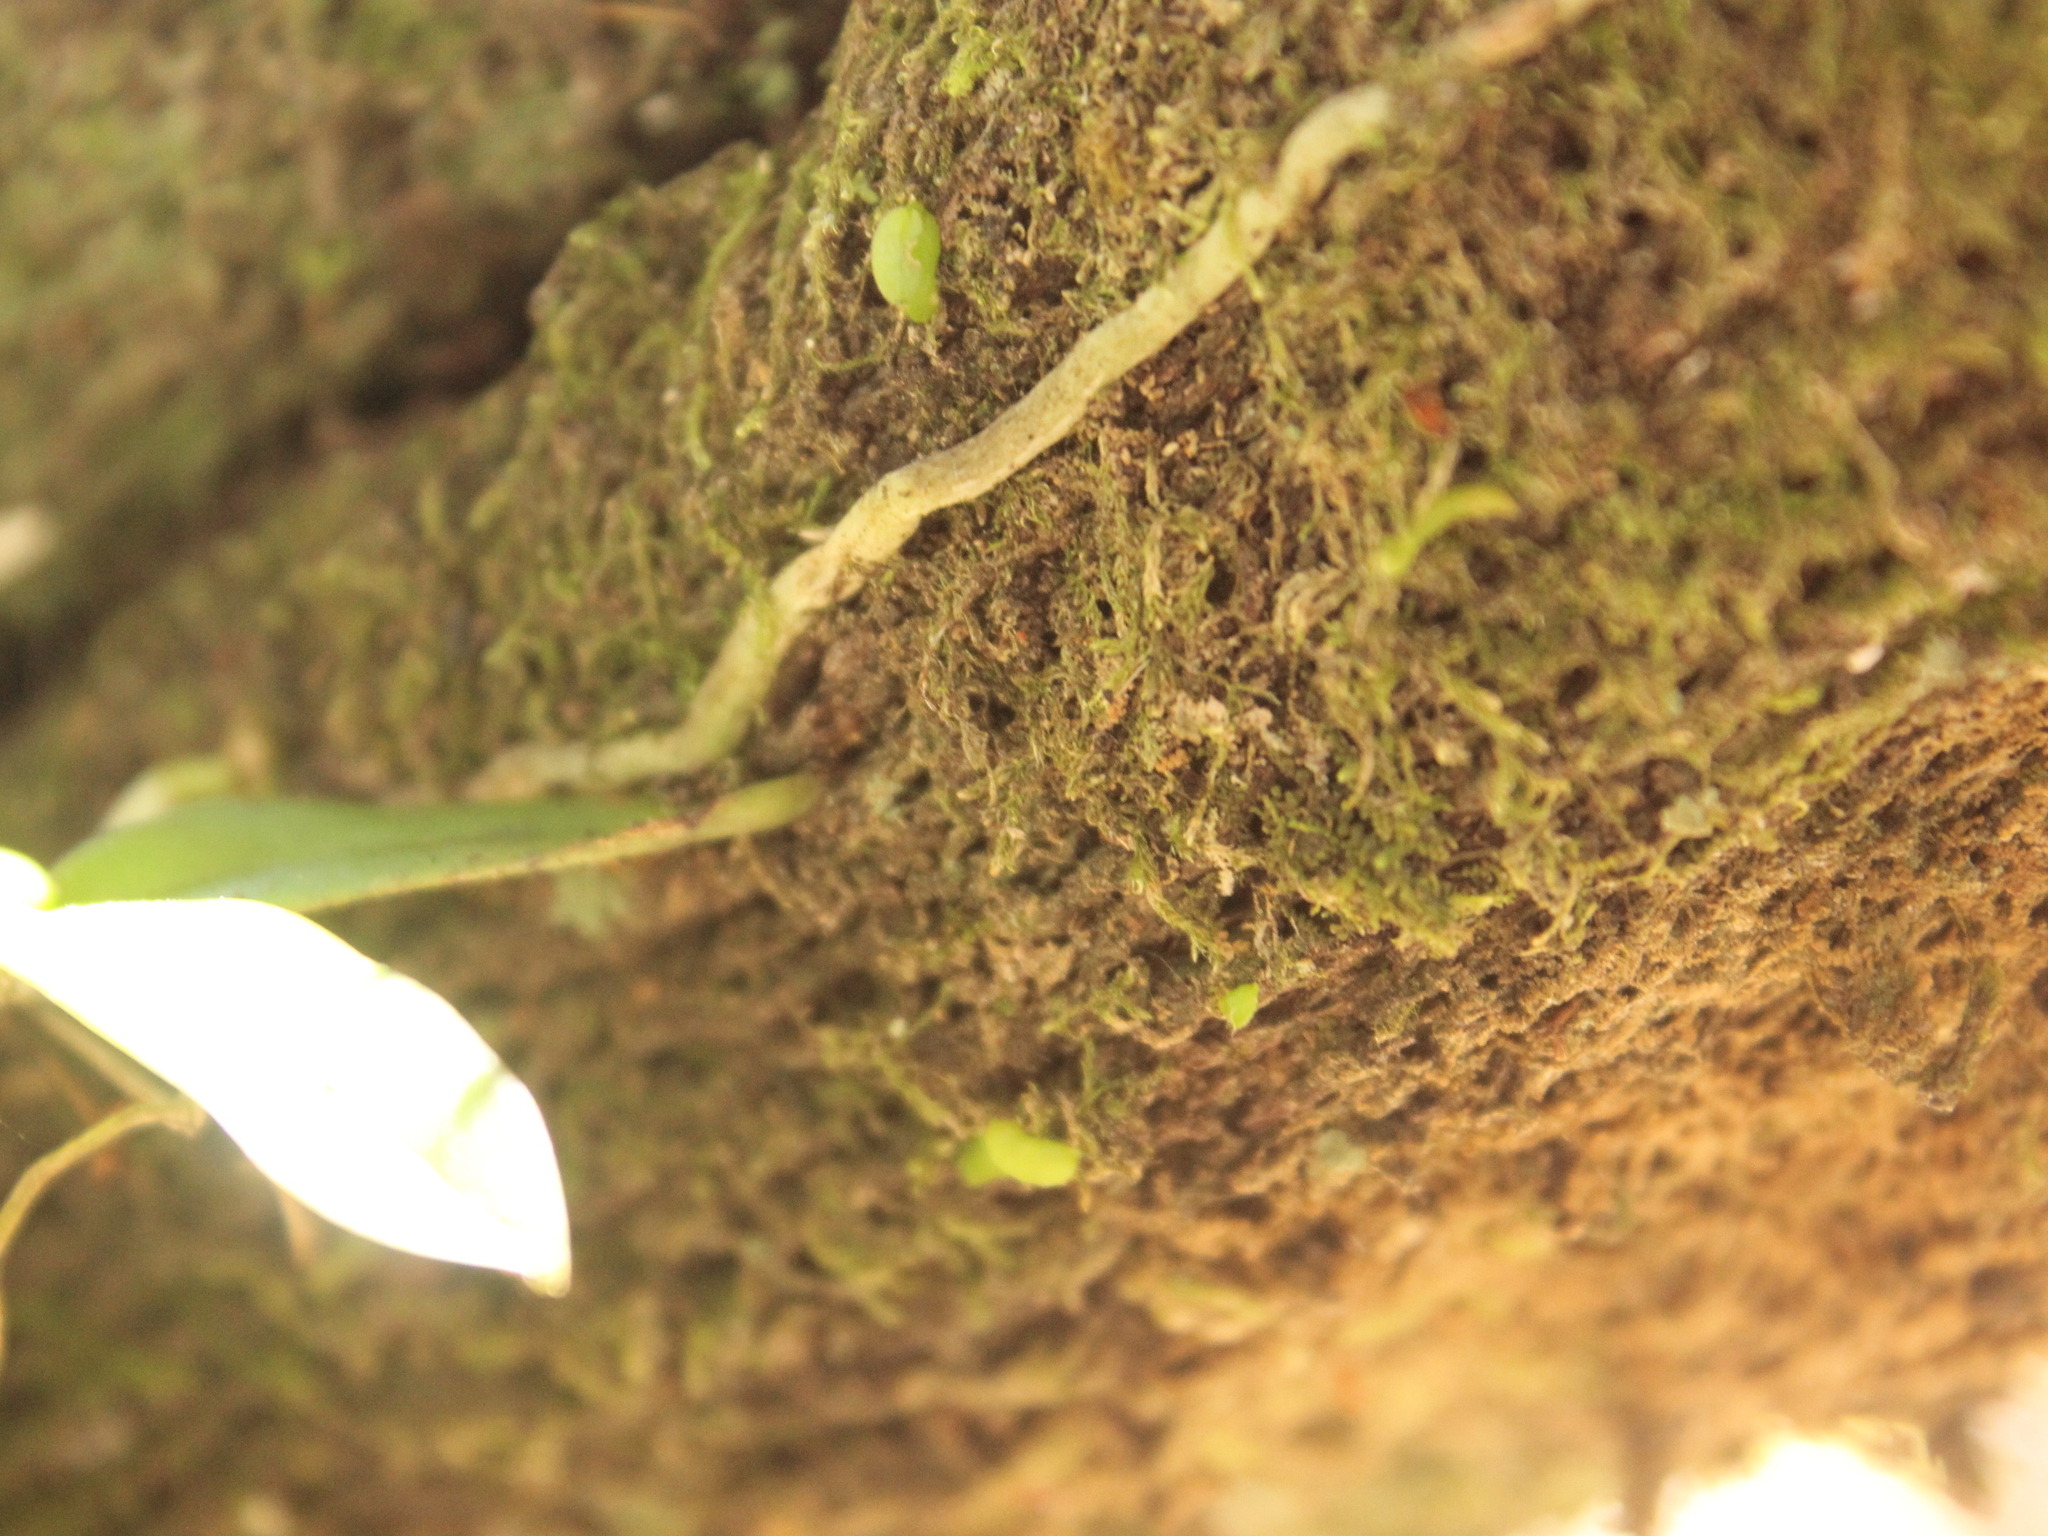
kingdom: Plantae
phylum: Tracheophyta
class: Liliopsida
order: Asparagales
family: Orchidaceae
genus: Drymoanthus
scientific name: Drymoanthus adversus
